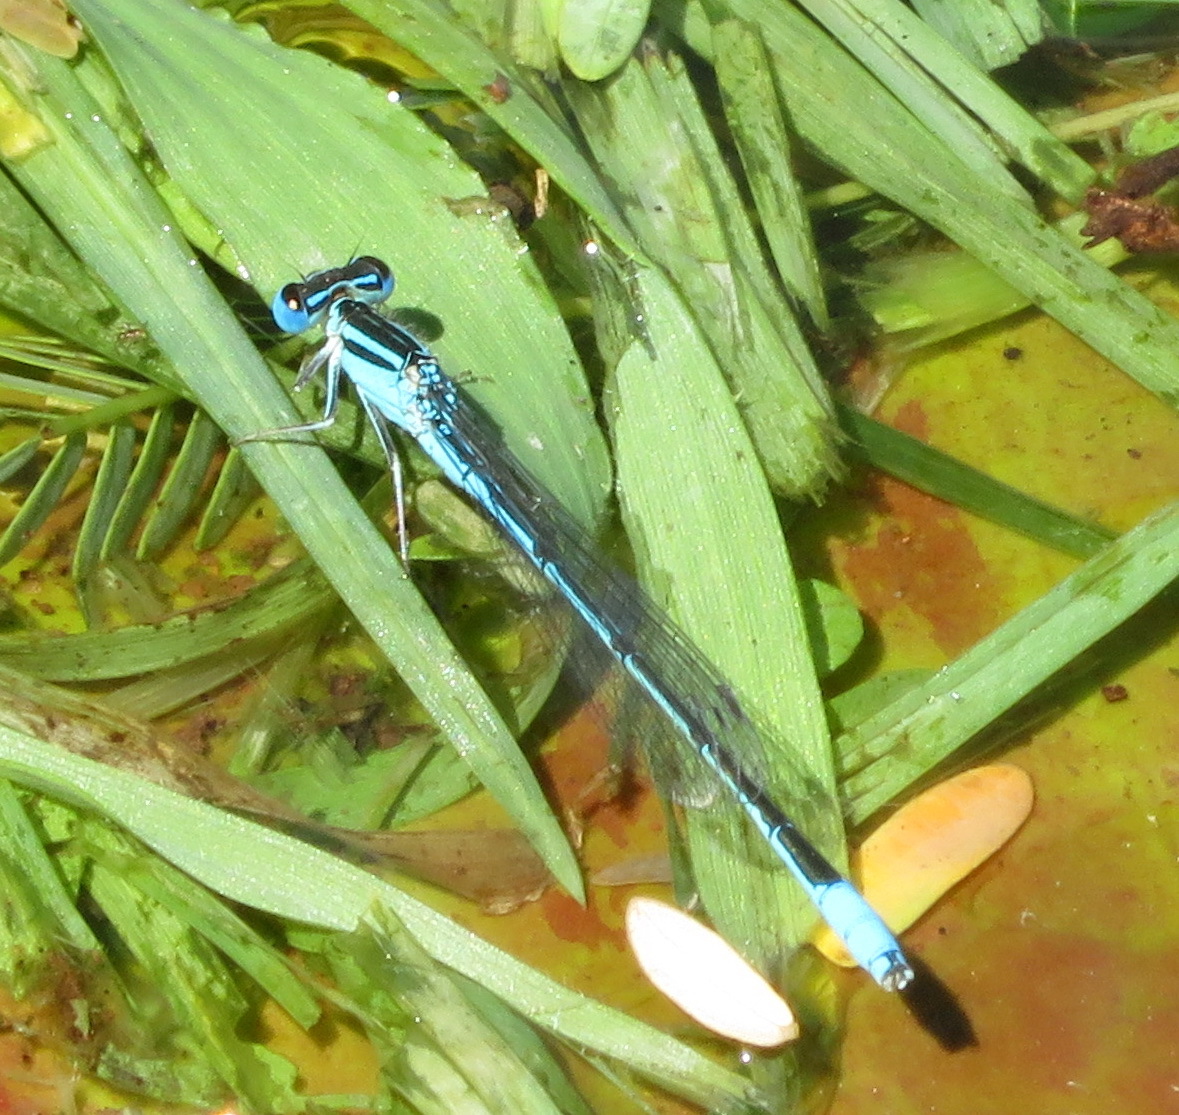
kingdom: Animalia
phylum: Arthropoda
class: Insecta
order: Odonata
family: Coenagrionidae
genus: Africallagma
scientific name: Africallagma glaucum
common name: Swamp bluet
